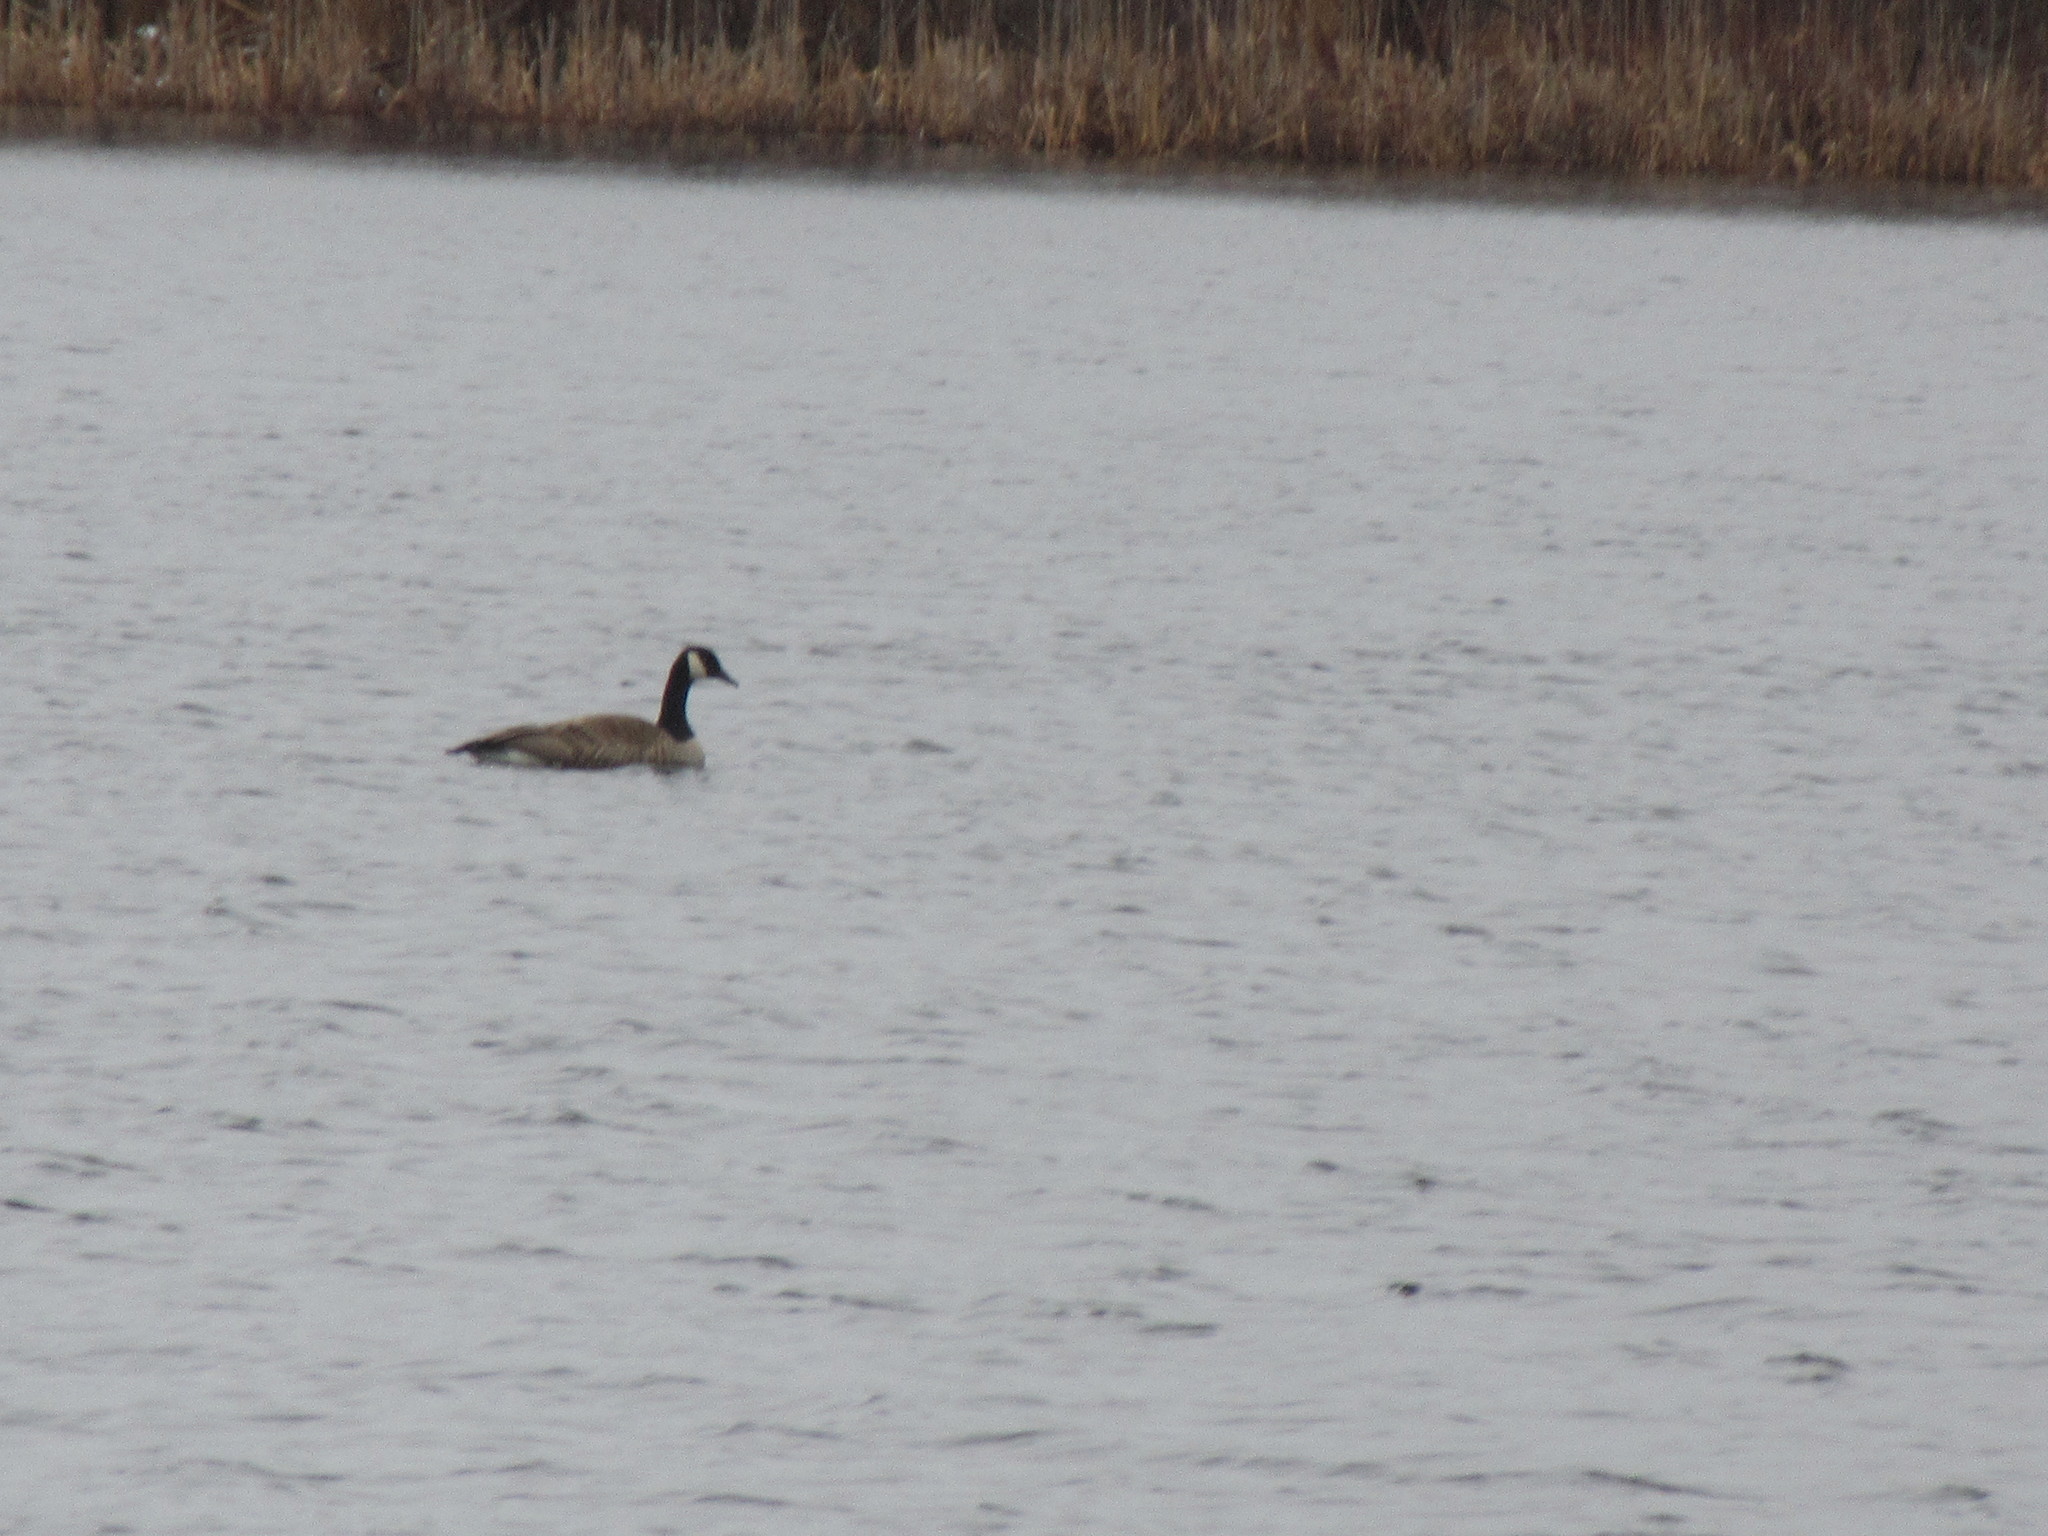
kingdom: Animalia
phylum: Chordata
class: Aves
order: Anseriformes
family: Anatidae
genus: Branta
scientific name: Branta canadensis
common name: Canada goose
